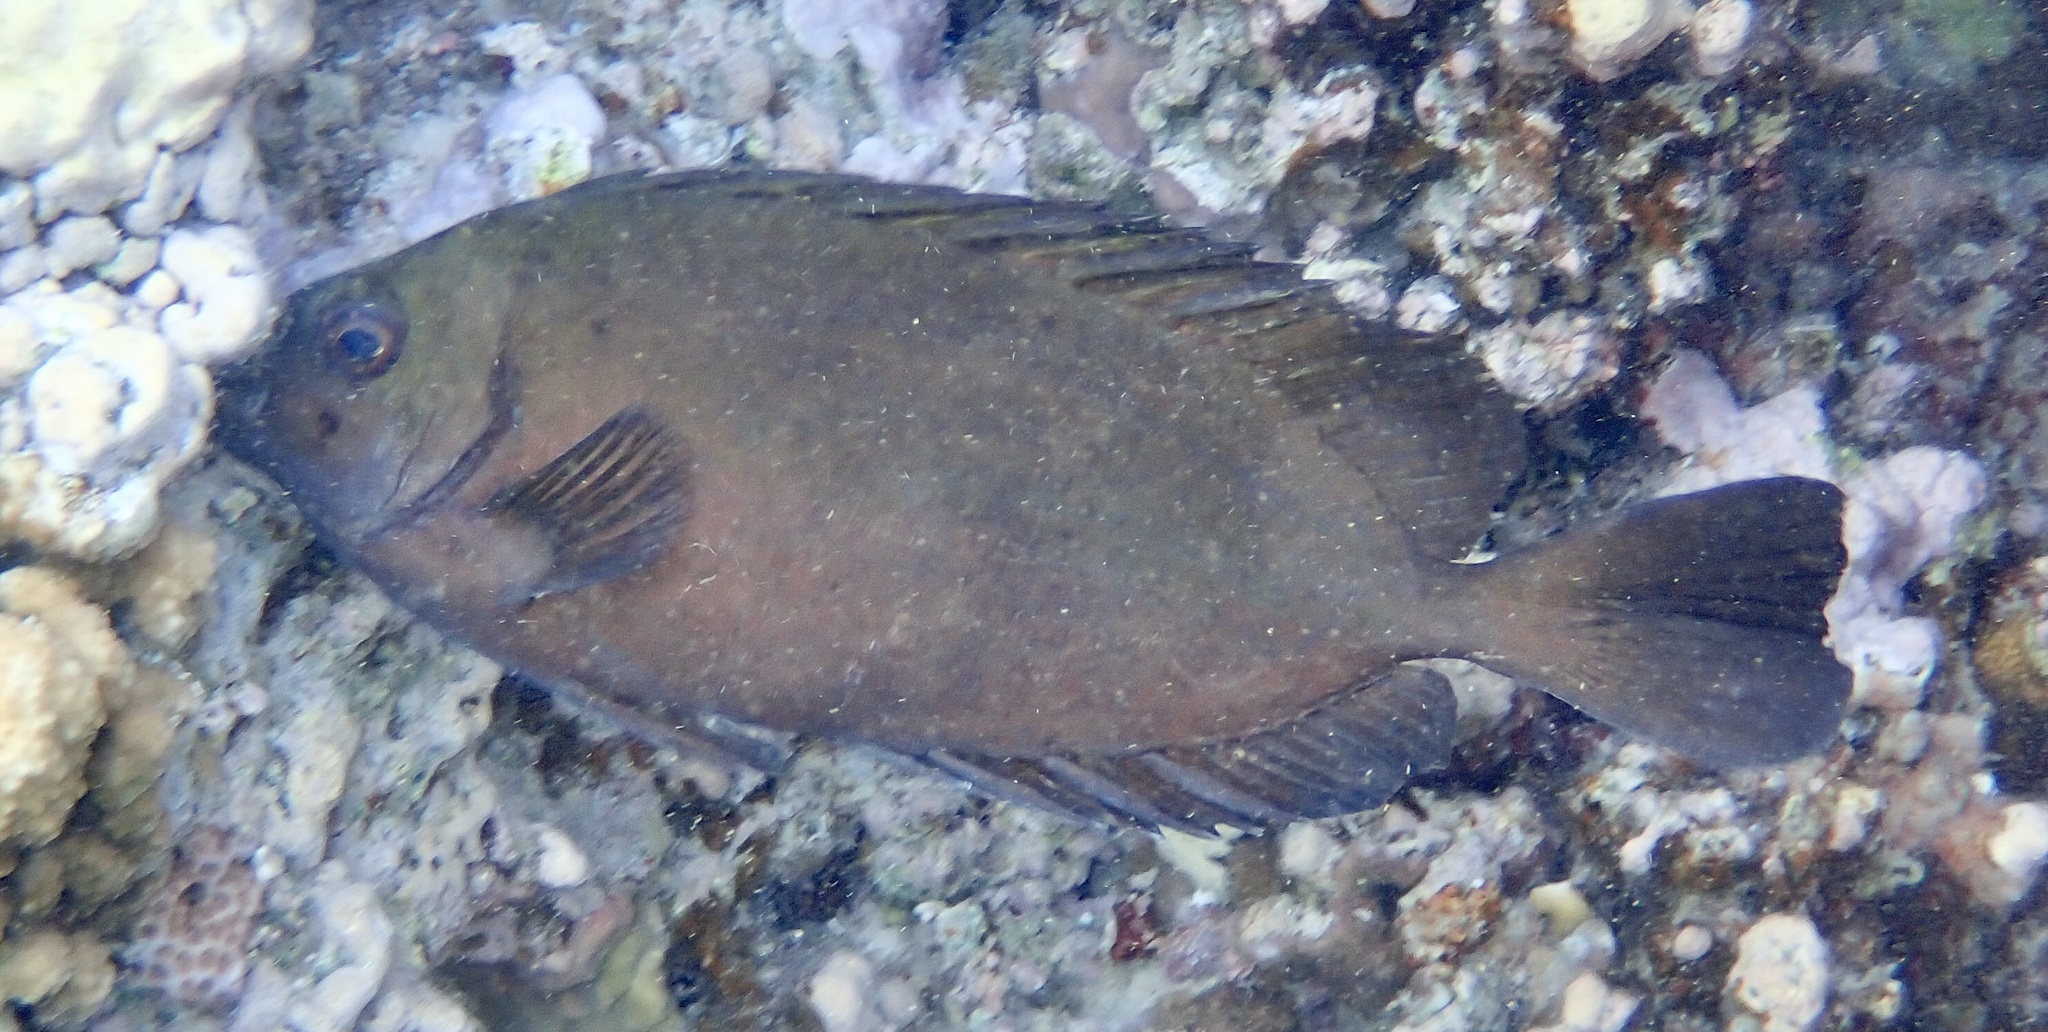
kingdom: Animalia
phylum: Chordata
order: Perciformes
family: Siganidae
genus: Siganus
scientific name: Siganus luridus
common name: Dusky spinefoot
